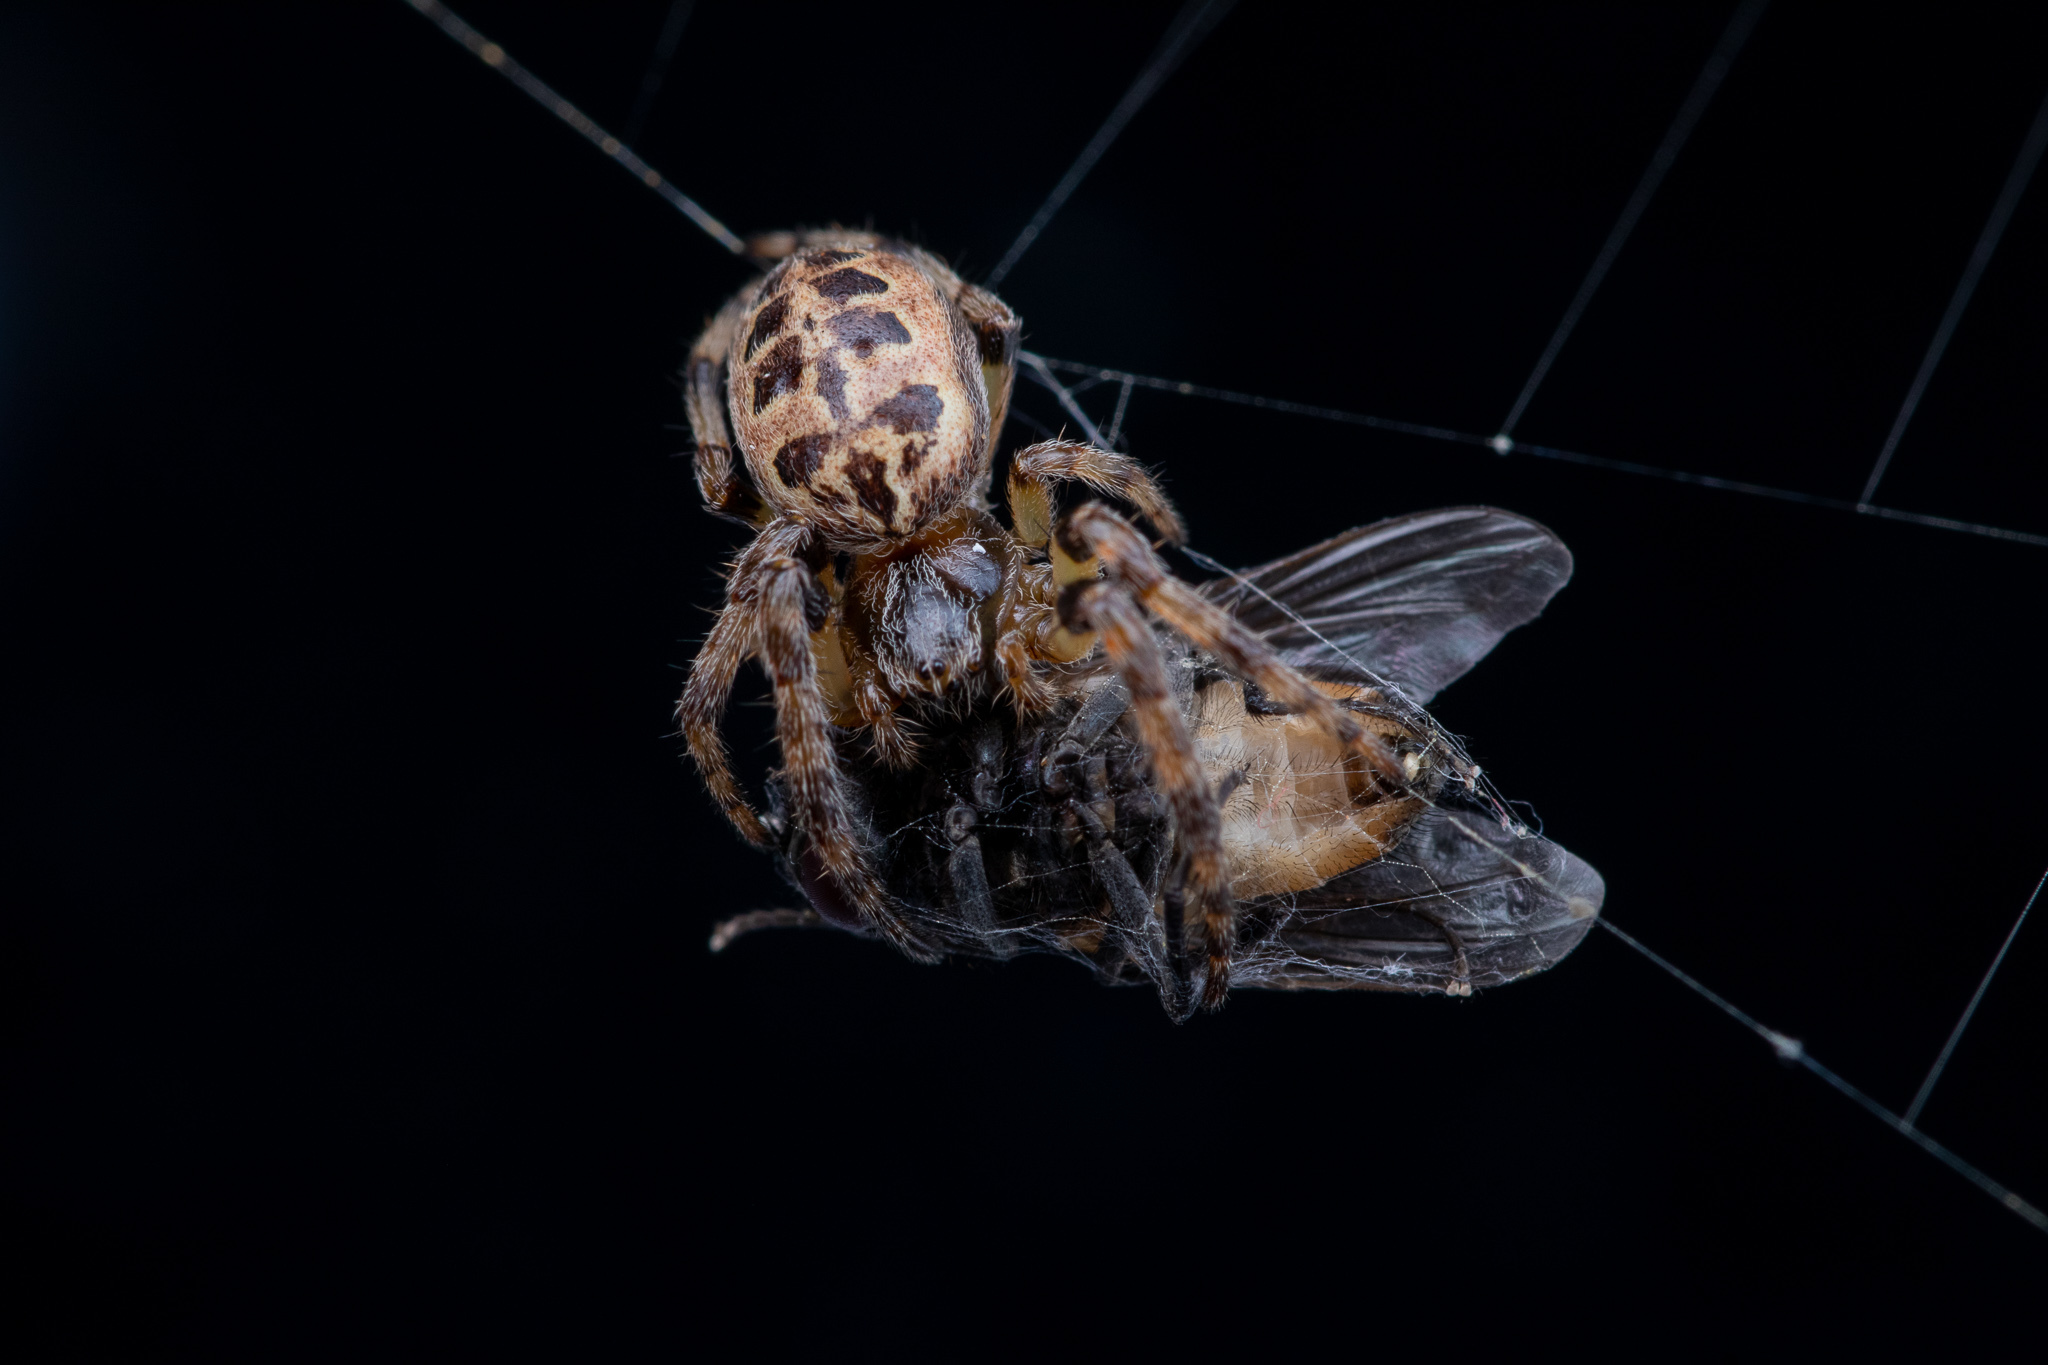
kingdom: Animalia
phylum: Arthropoda
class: Arachnida
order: Araneae
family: Araneidae
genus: Larinioides
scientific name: Larinioides cornutus
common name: Furrow orbweaver
